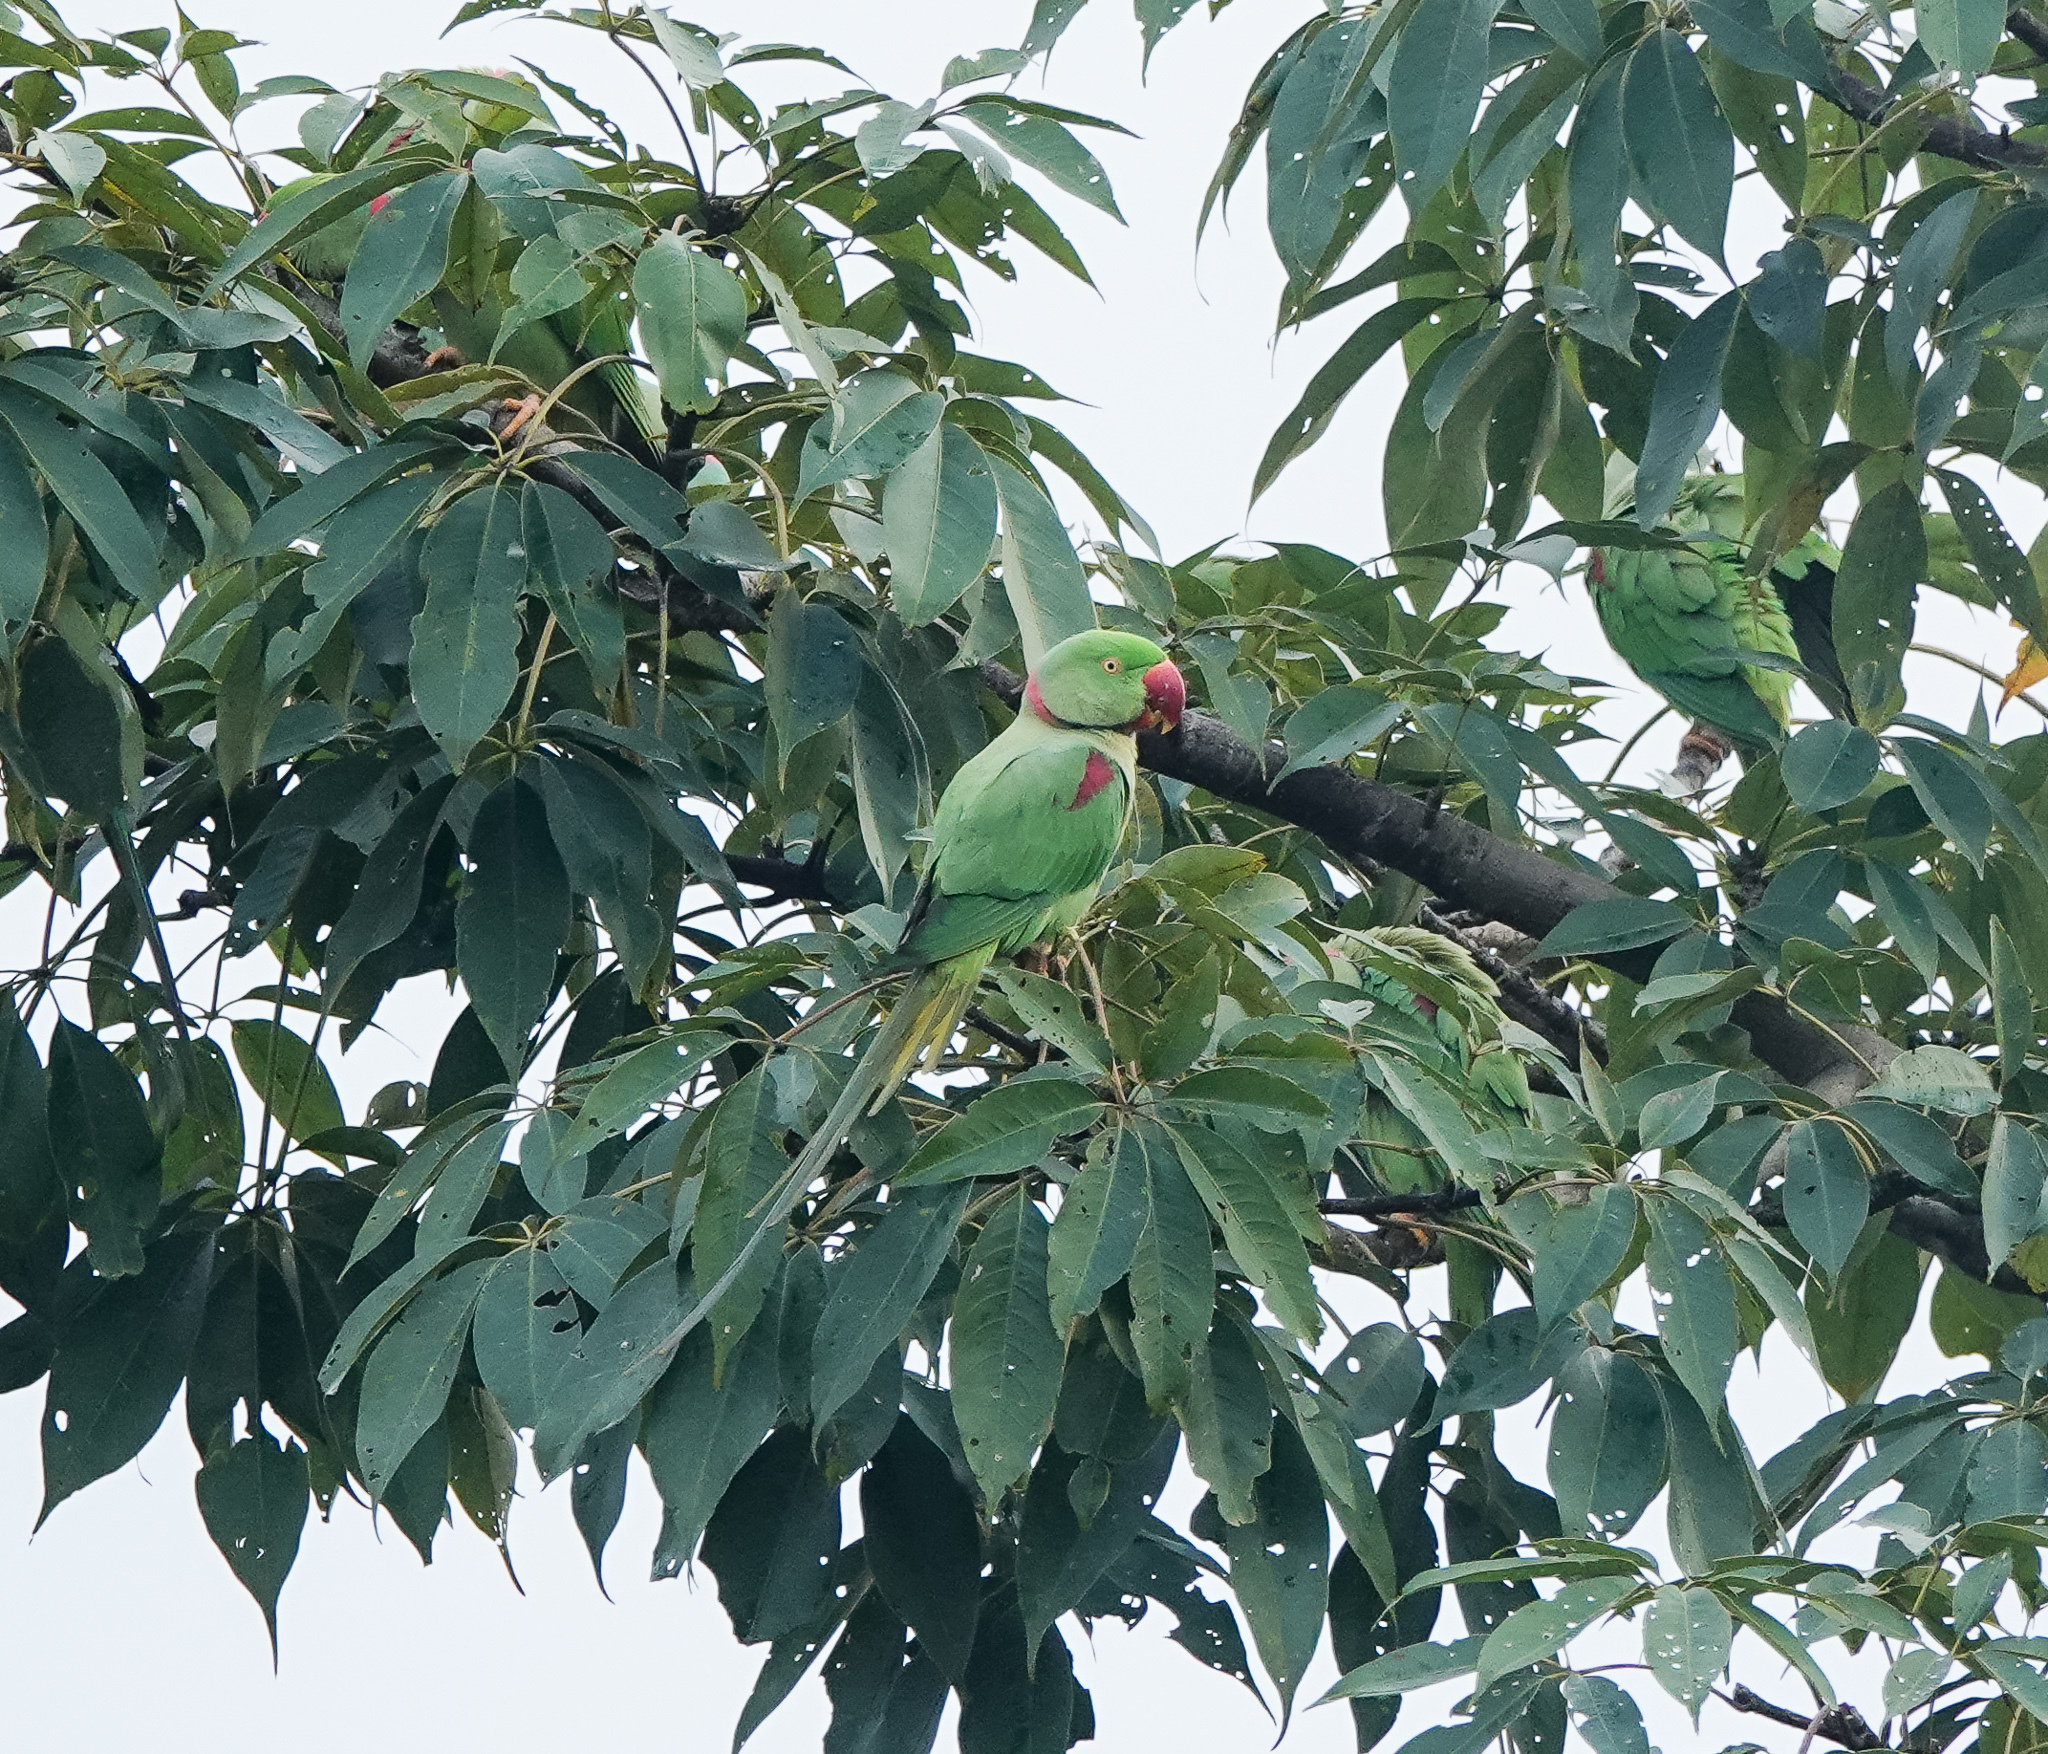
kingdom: Animalia
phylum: Chordata
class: Aves
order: Psittaciformes
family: Psittacidae
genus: Psittacula
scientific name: Psittacula eupatria
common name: Alexandrine parakeet
